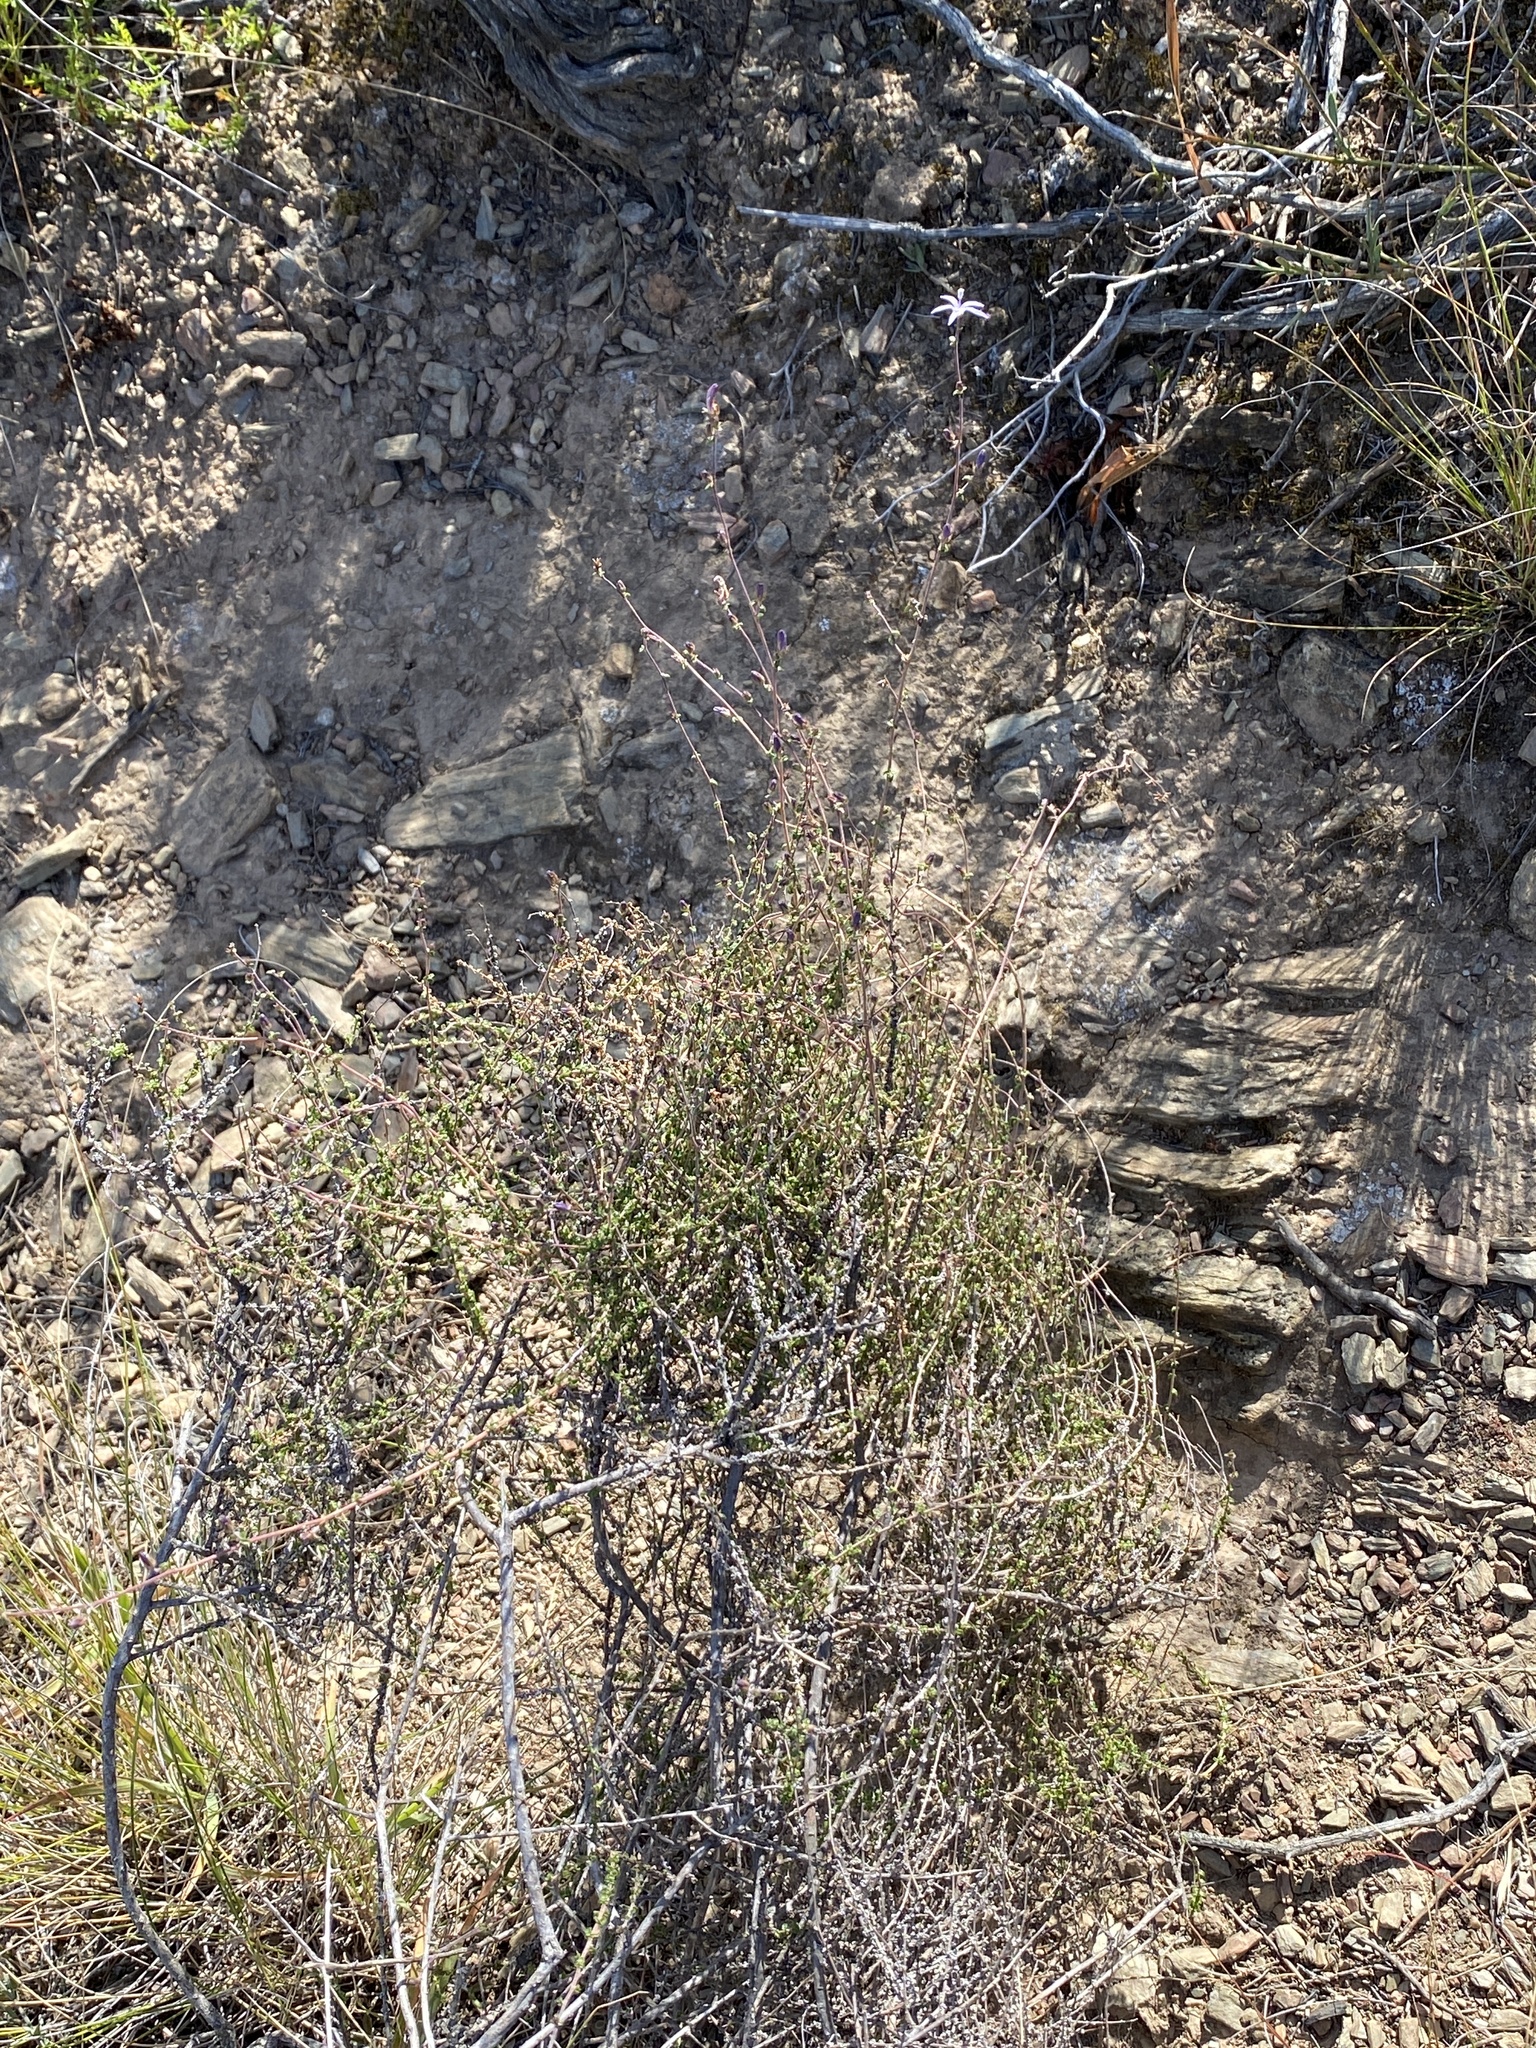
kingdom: Plantae
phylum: Tracheophyta
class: Magnoliopsida
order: Asterales
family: Campanulaceae
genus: Wahlenbergia
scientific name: Wahlenbergia loddigesii
